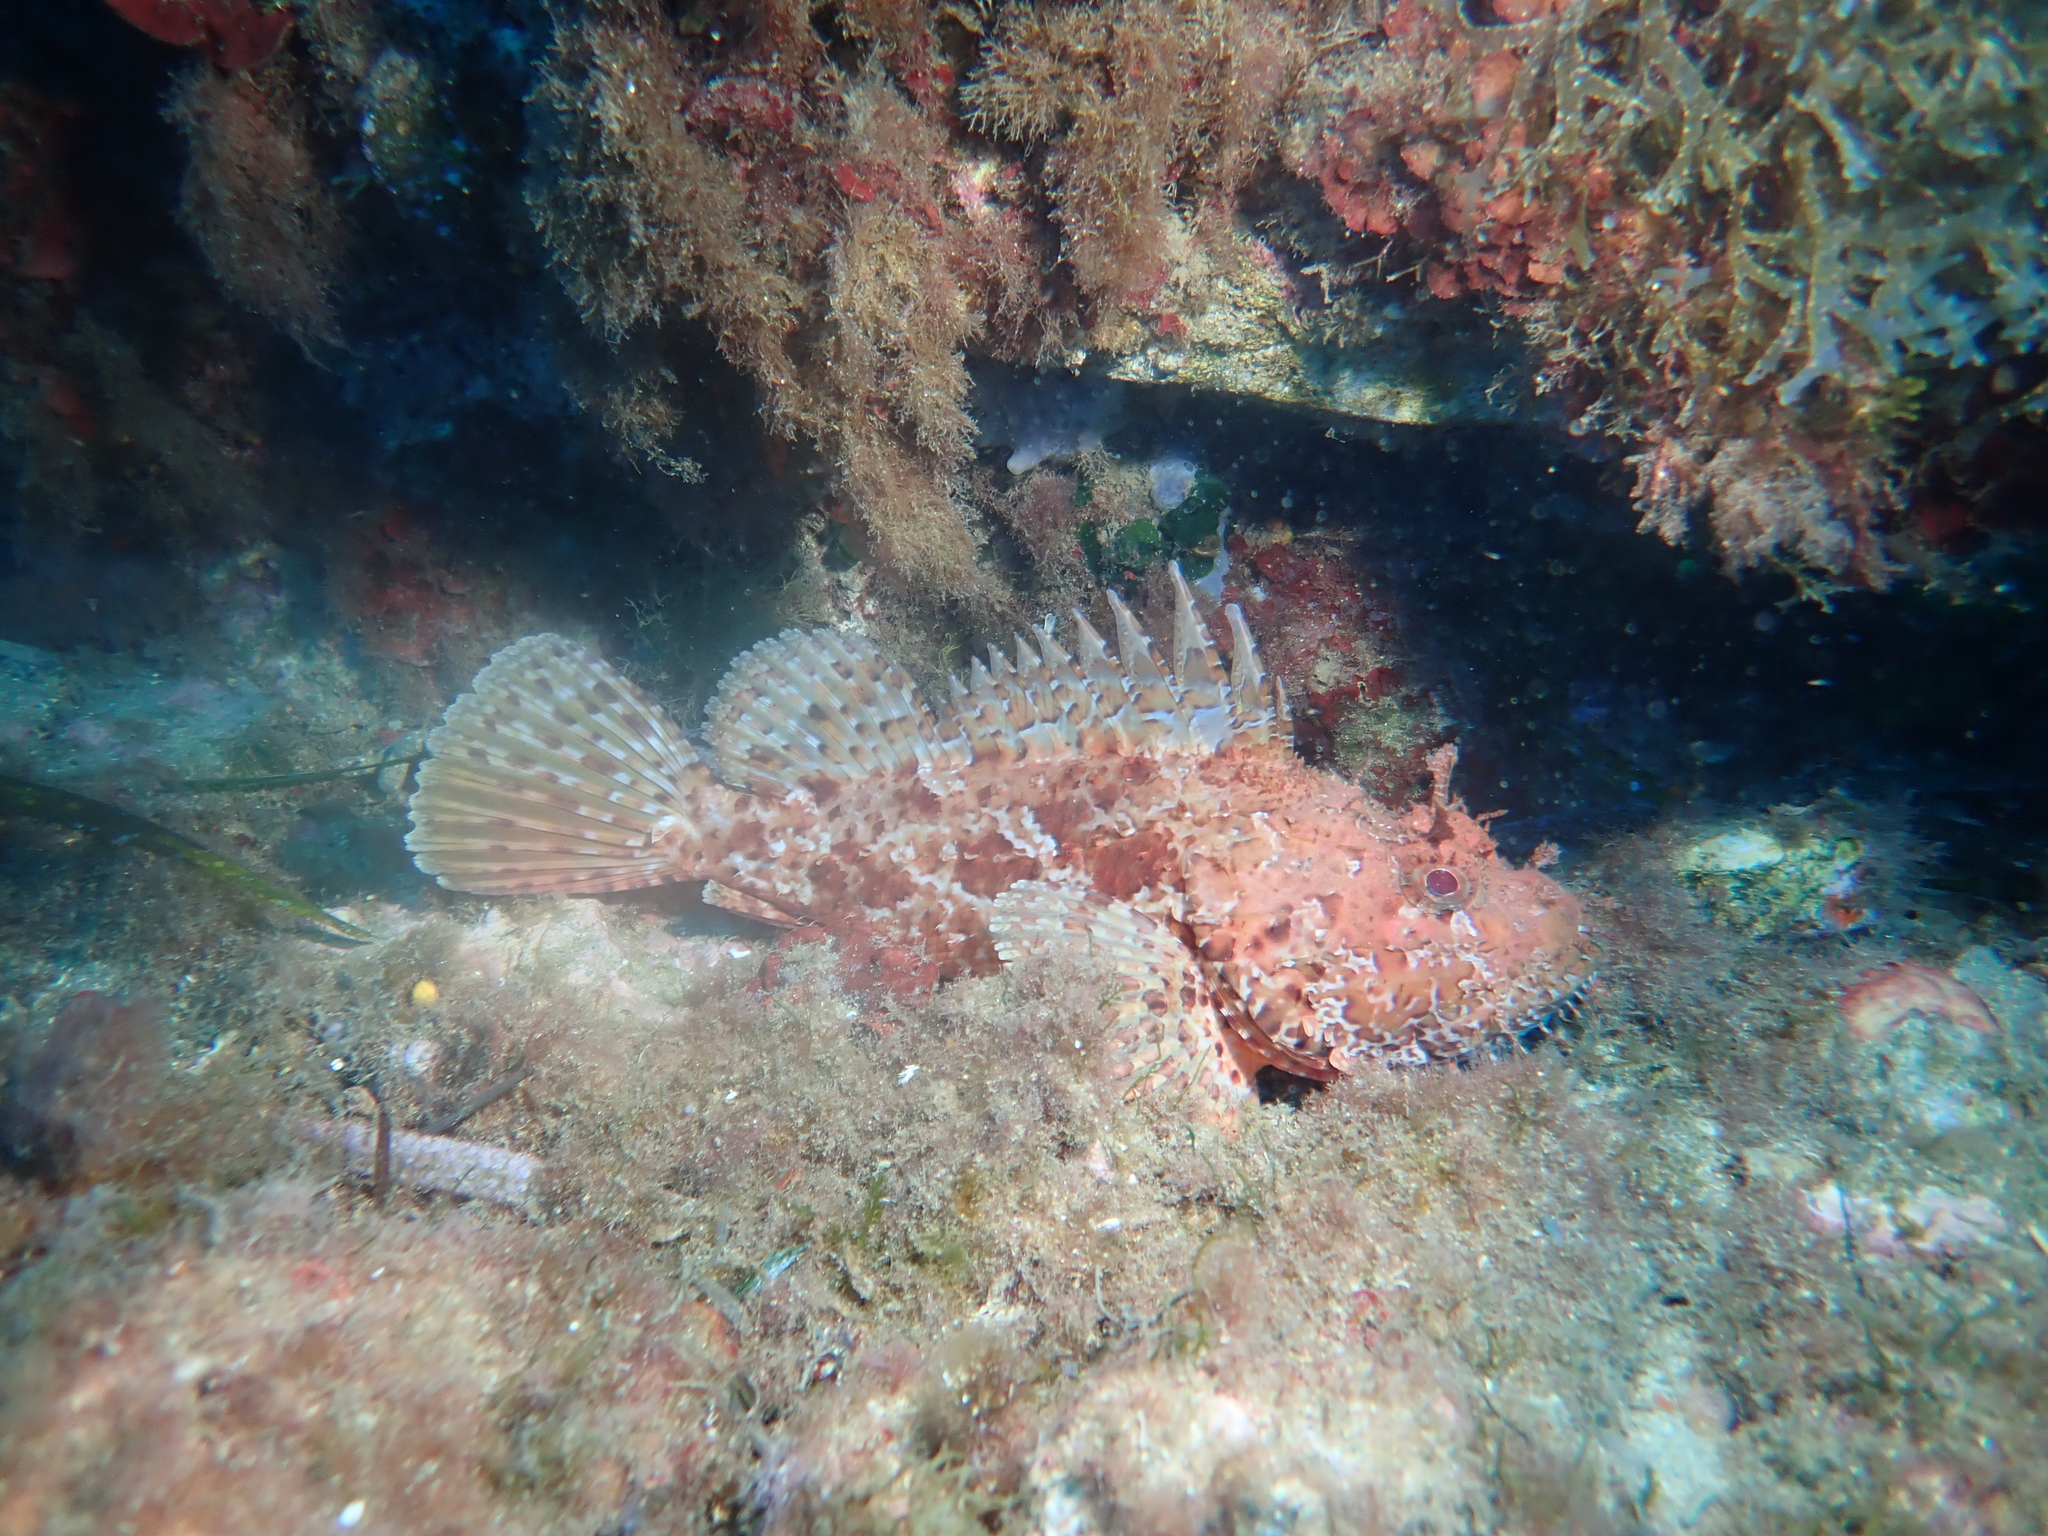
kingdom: Animalia
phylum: Chordata
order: Scorpaeniformes
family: Scorpaenidae
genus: Scorpaena
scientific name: Scorpaena scrofa
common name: Red scorpionfish
